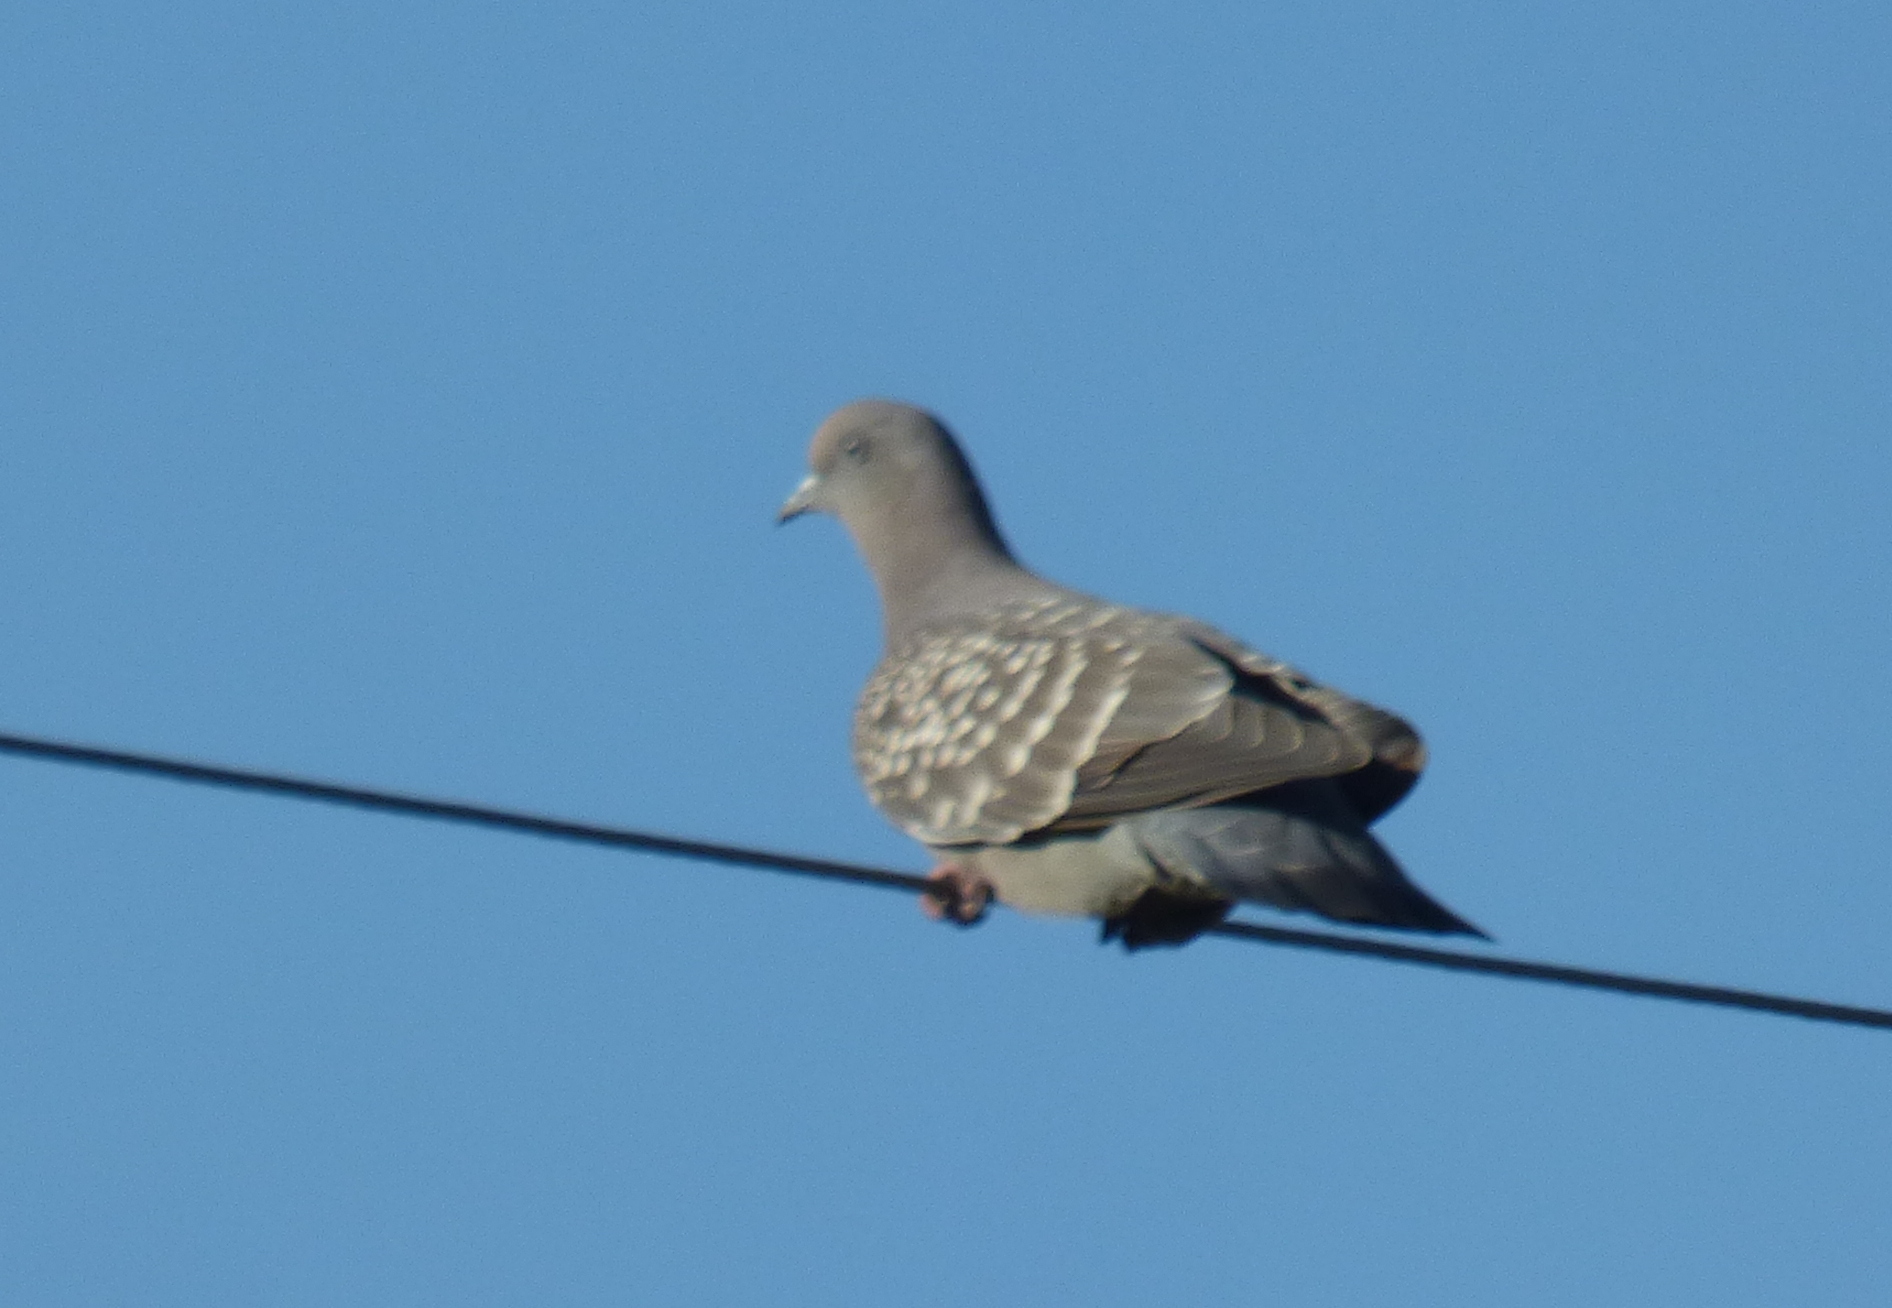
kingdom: Animalia
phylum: Chordata
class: Aves
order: Columbiformes
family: Columbidae
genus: Patagioenas
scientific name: Patagioenas maculosa
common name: Spot-winged pigeon
